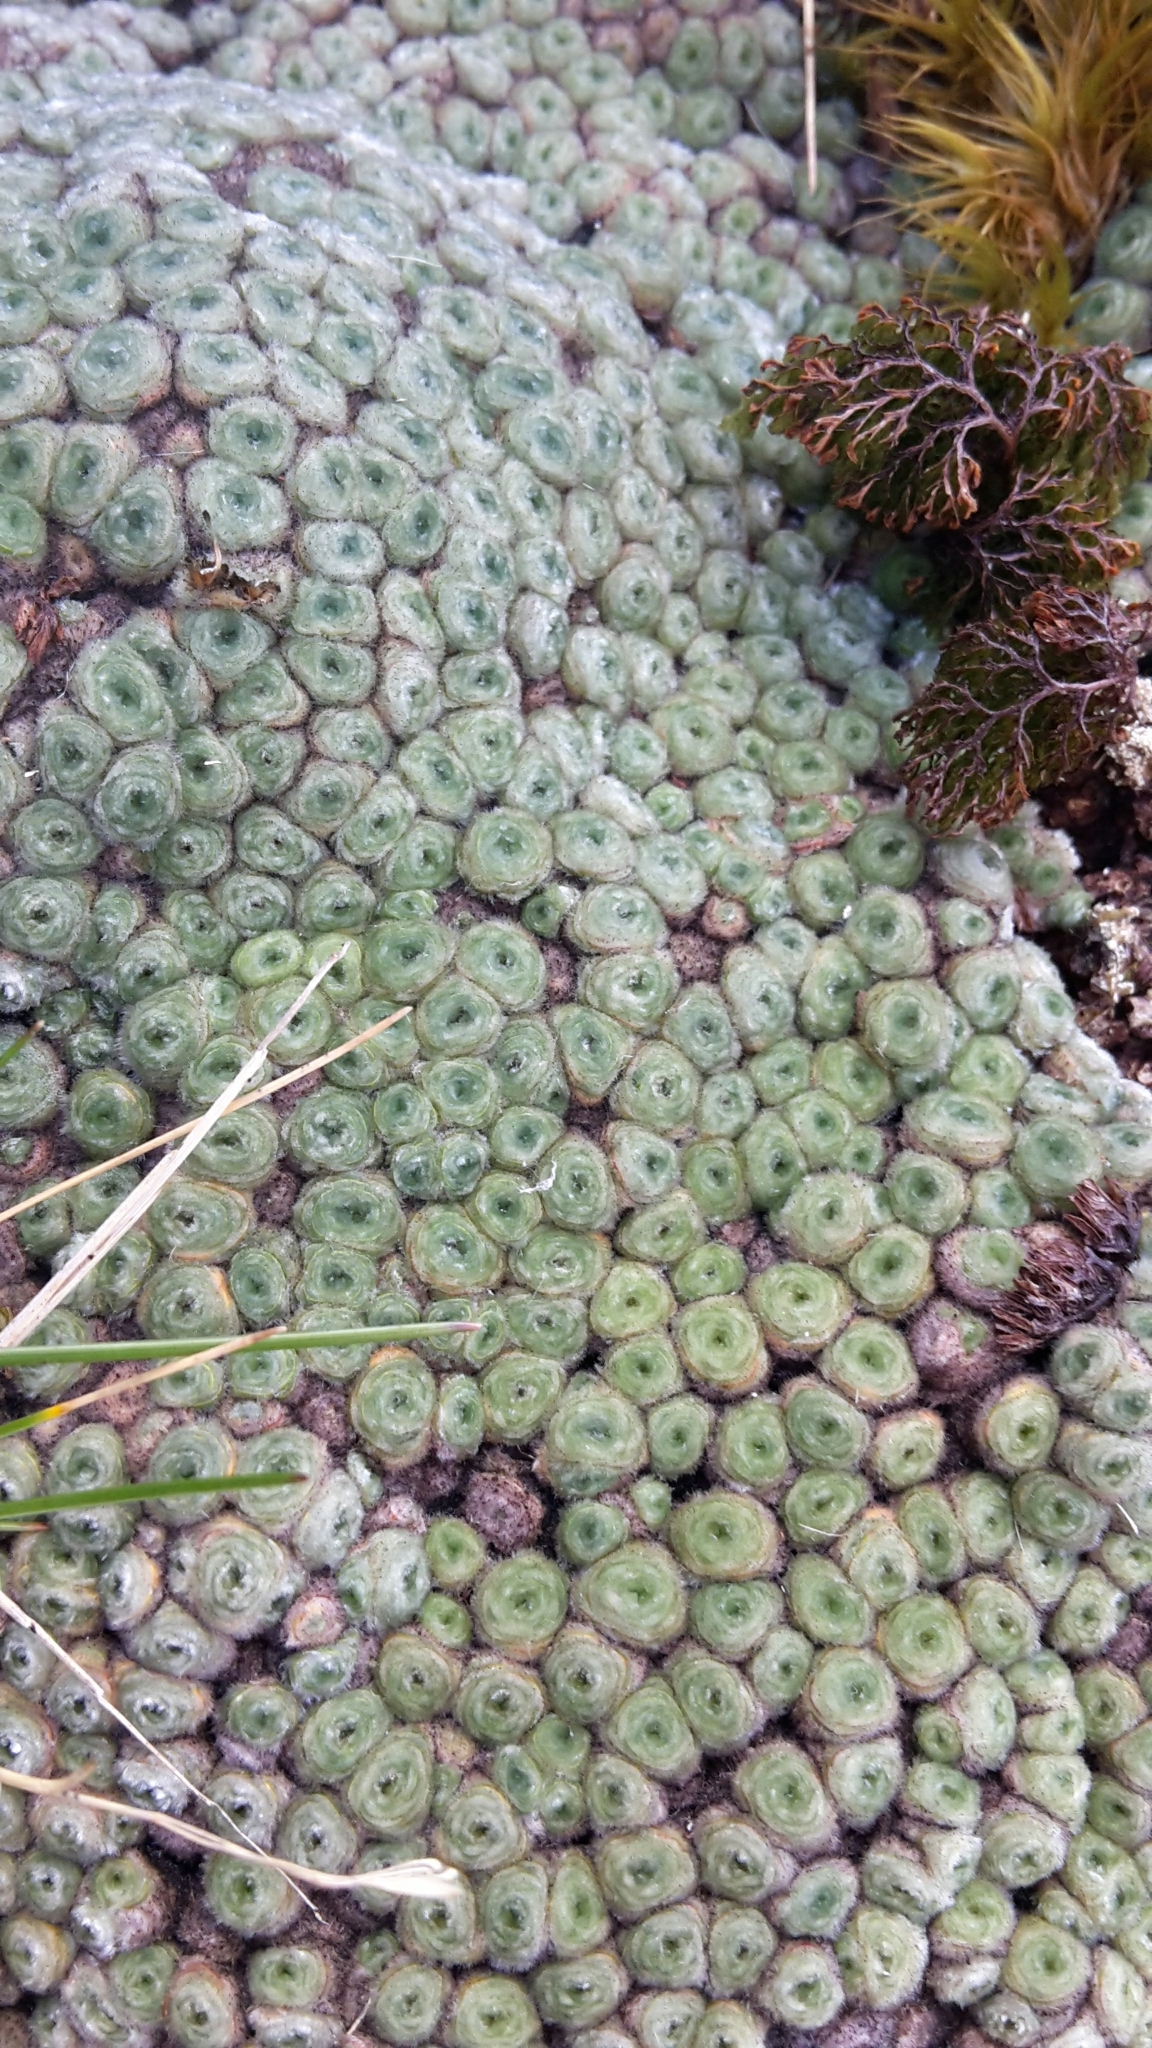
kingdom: Plantae
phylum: Tracheophyta
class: Magnoliopsida
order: Asterales
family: Asteraceae
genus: Raoulia
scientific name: Raoulia rubra
